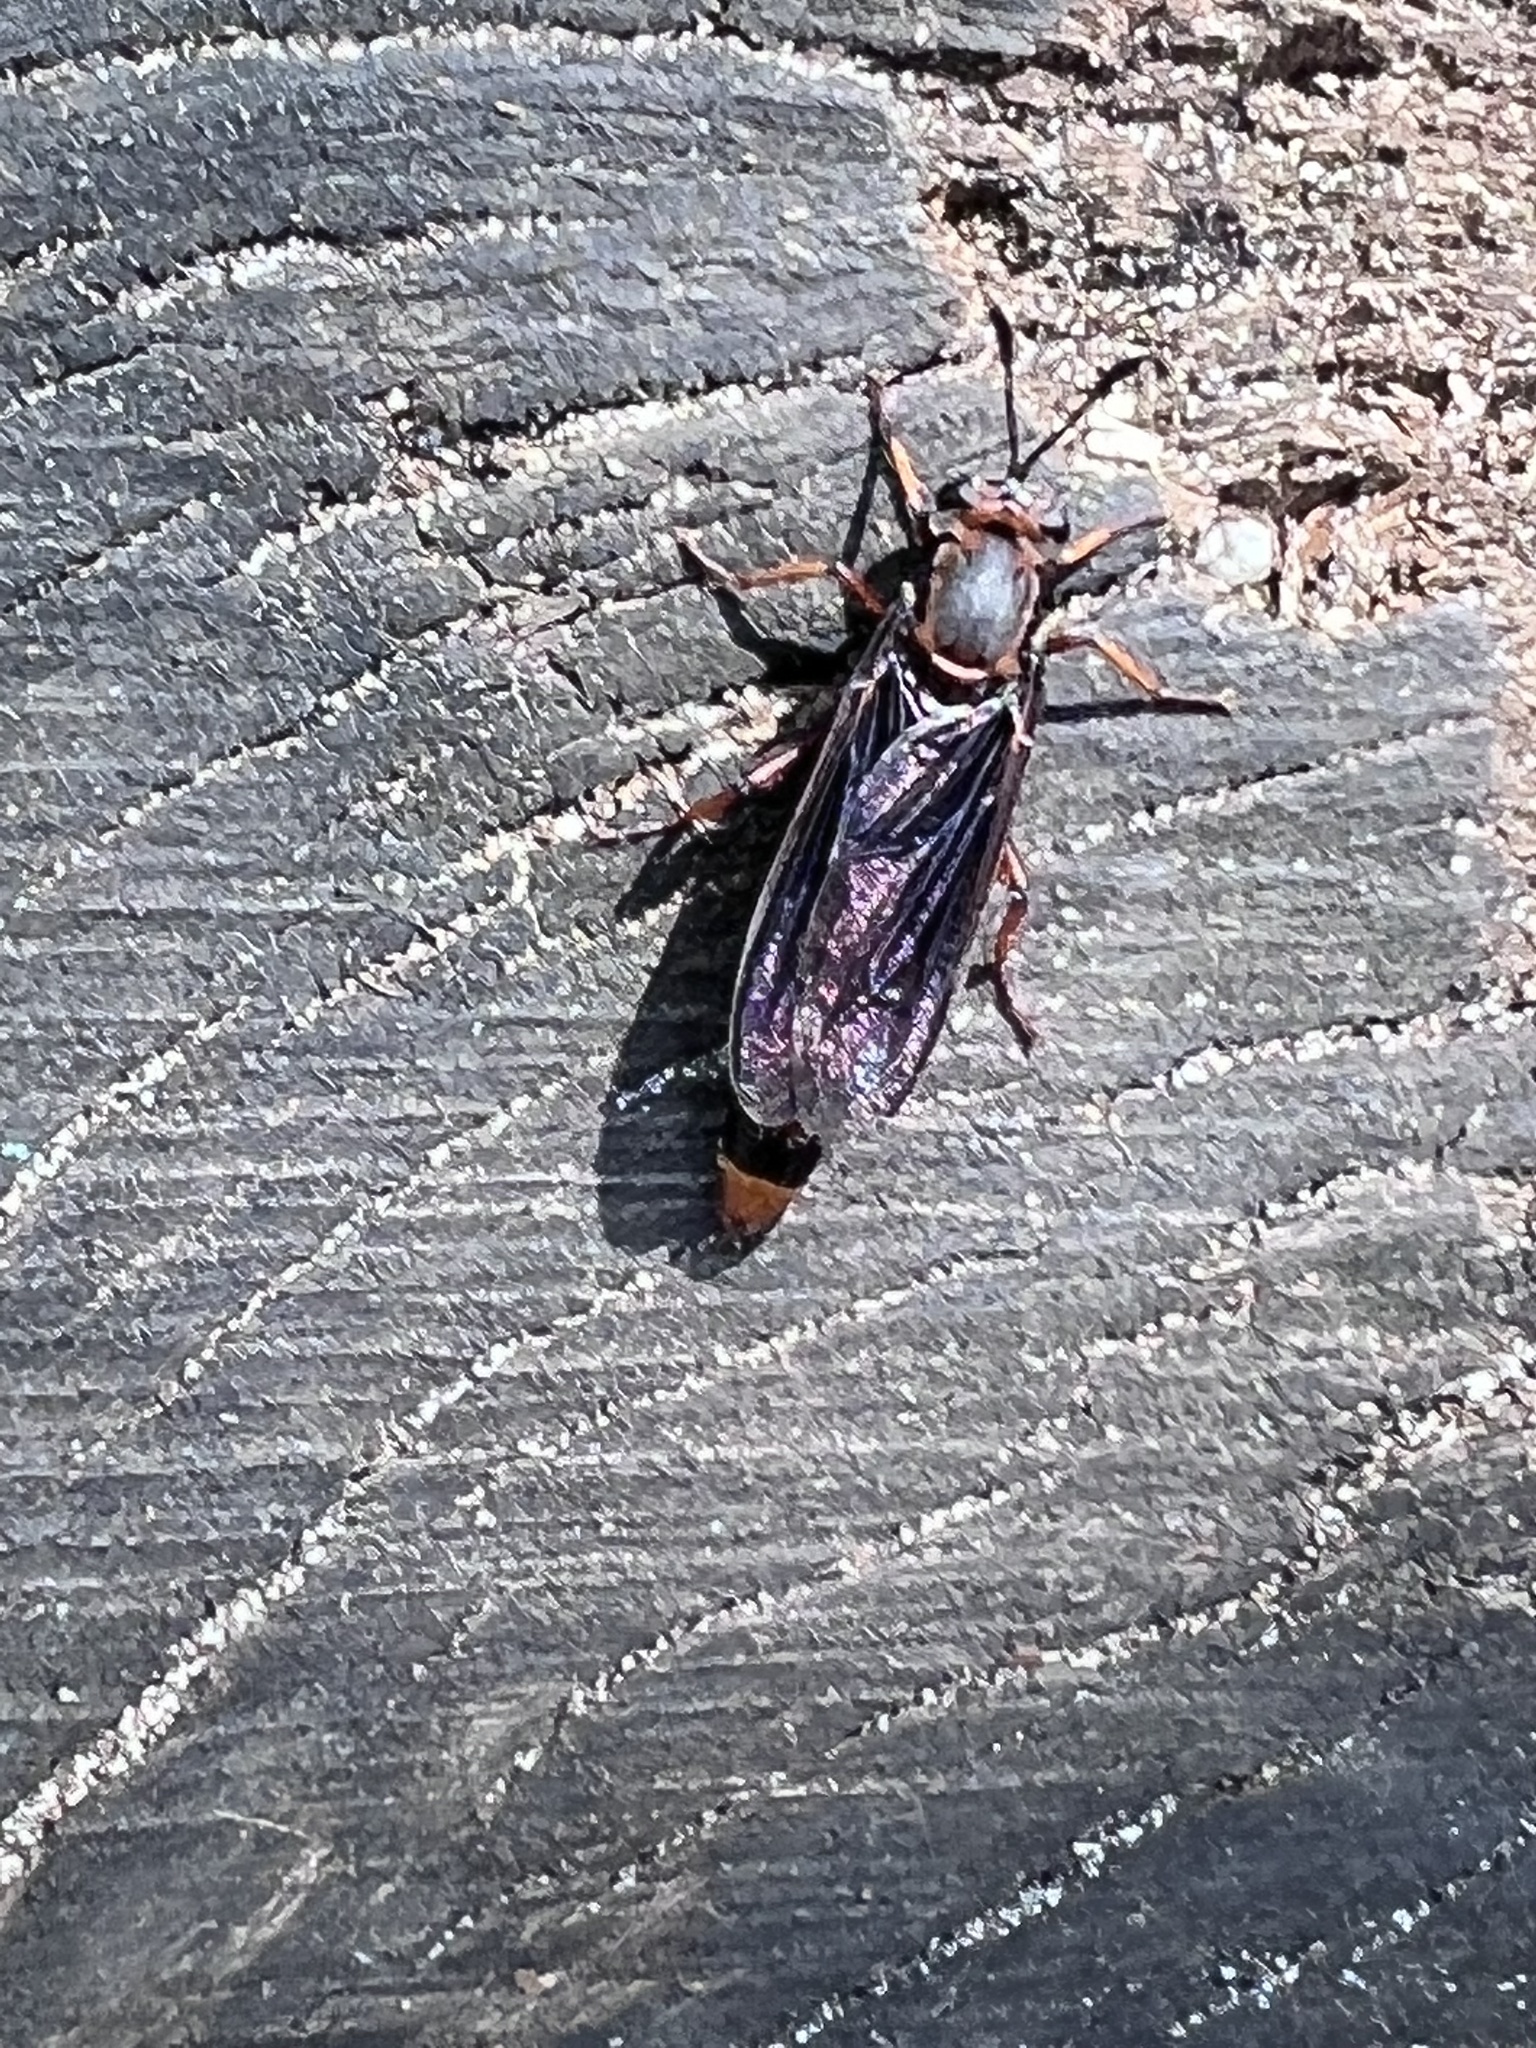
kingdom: Animalia
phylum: Arthropoda
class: Insecta
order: Diptera
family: Mydidae
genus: Phyllomydas
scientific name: Phyllomydas parvulus
